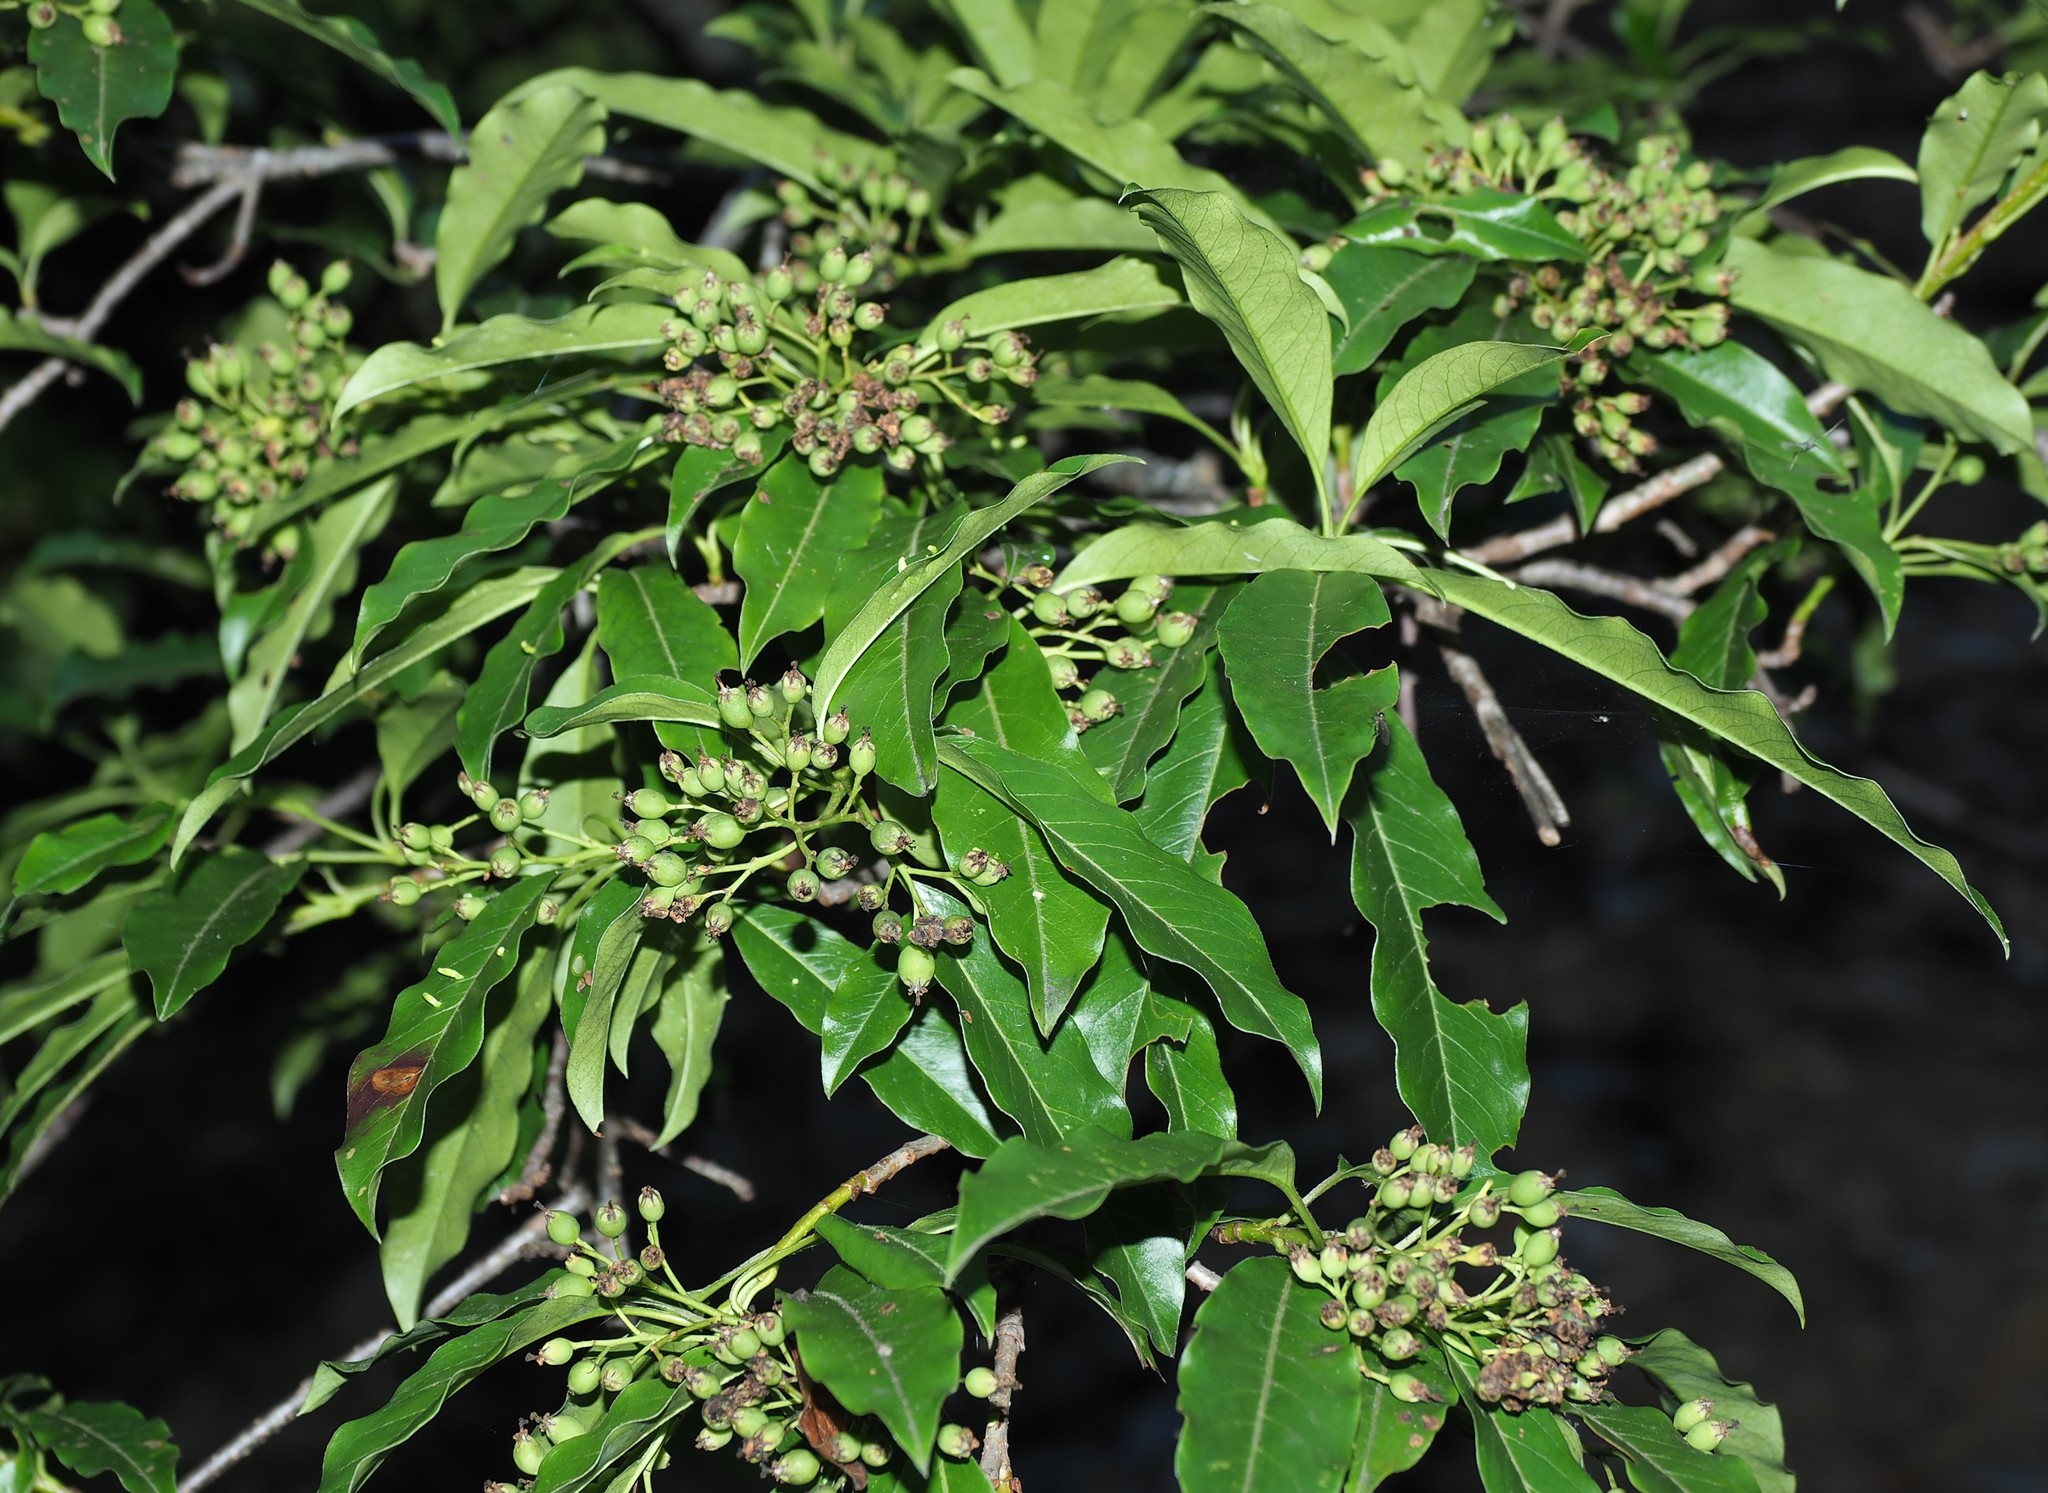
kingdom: Plantae
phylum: Tracheophyta
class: Magnoliopsida
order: Rosales
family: Rosaceae
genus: Stranvaesia
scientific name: Stranvaesia davidiana
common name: Chinese photinia
